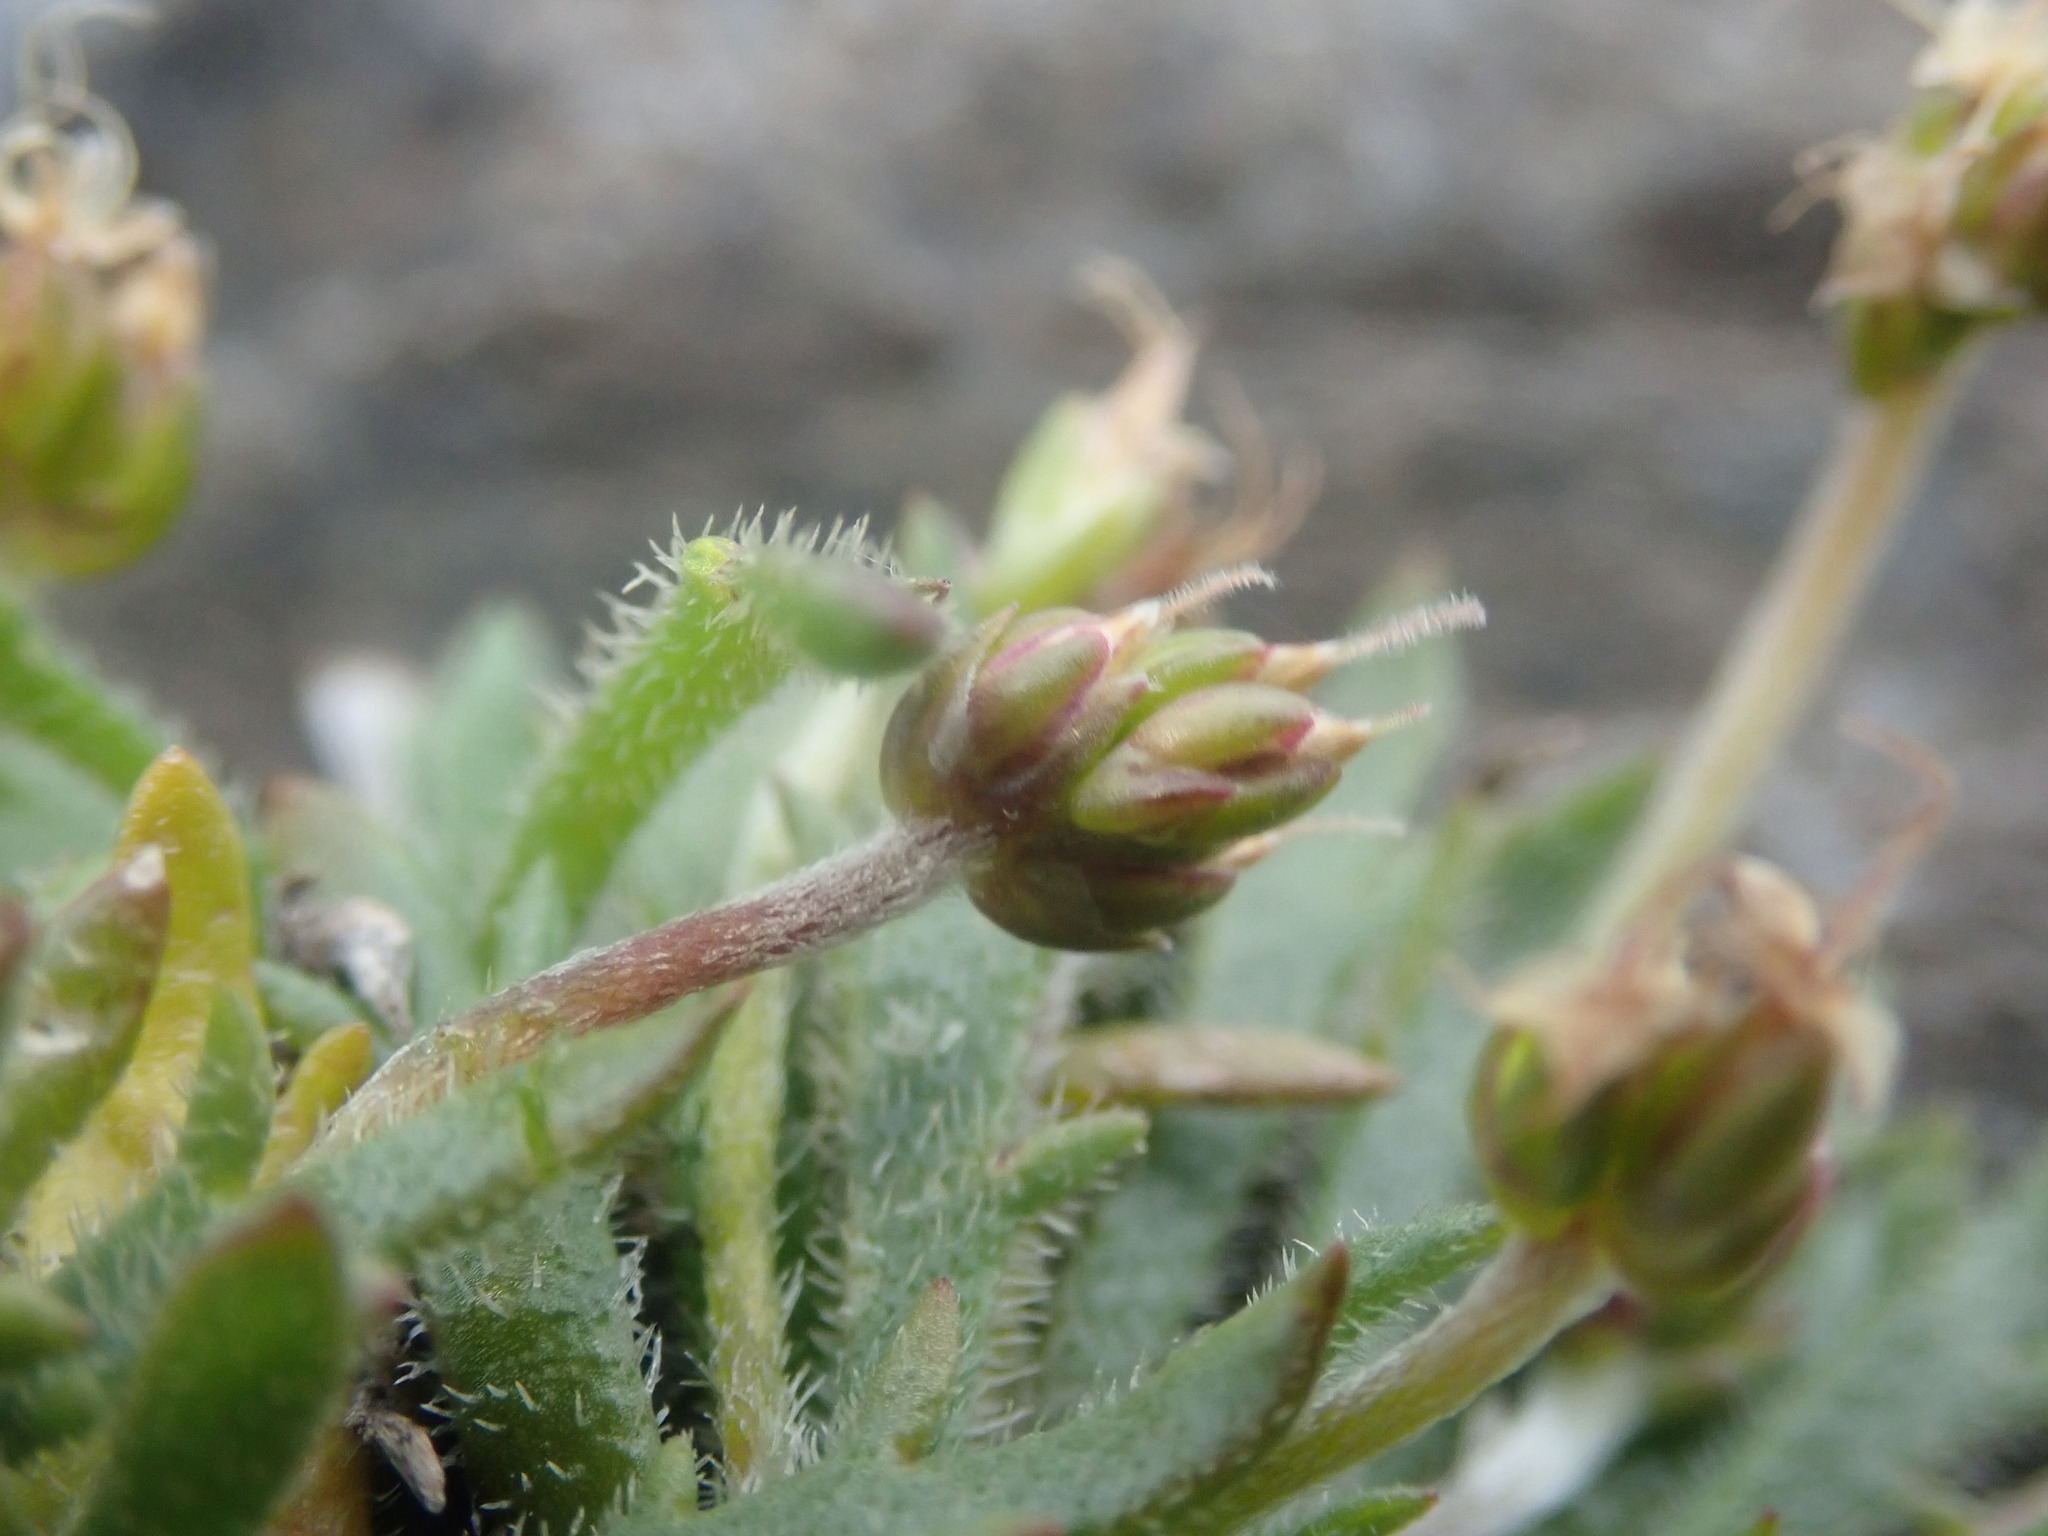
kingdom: Plantae
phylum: Tracheophyta
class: Magnoliopsida
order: Lamiales
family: Plantaginaceae
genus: Plantago
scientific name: Plantago coronopus
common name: Buck's-horn plantain
